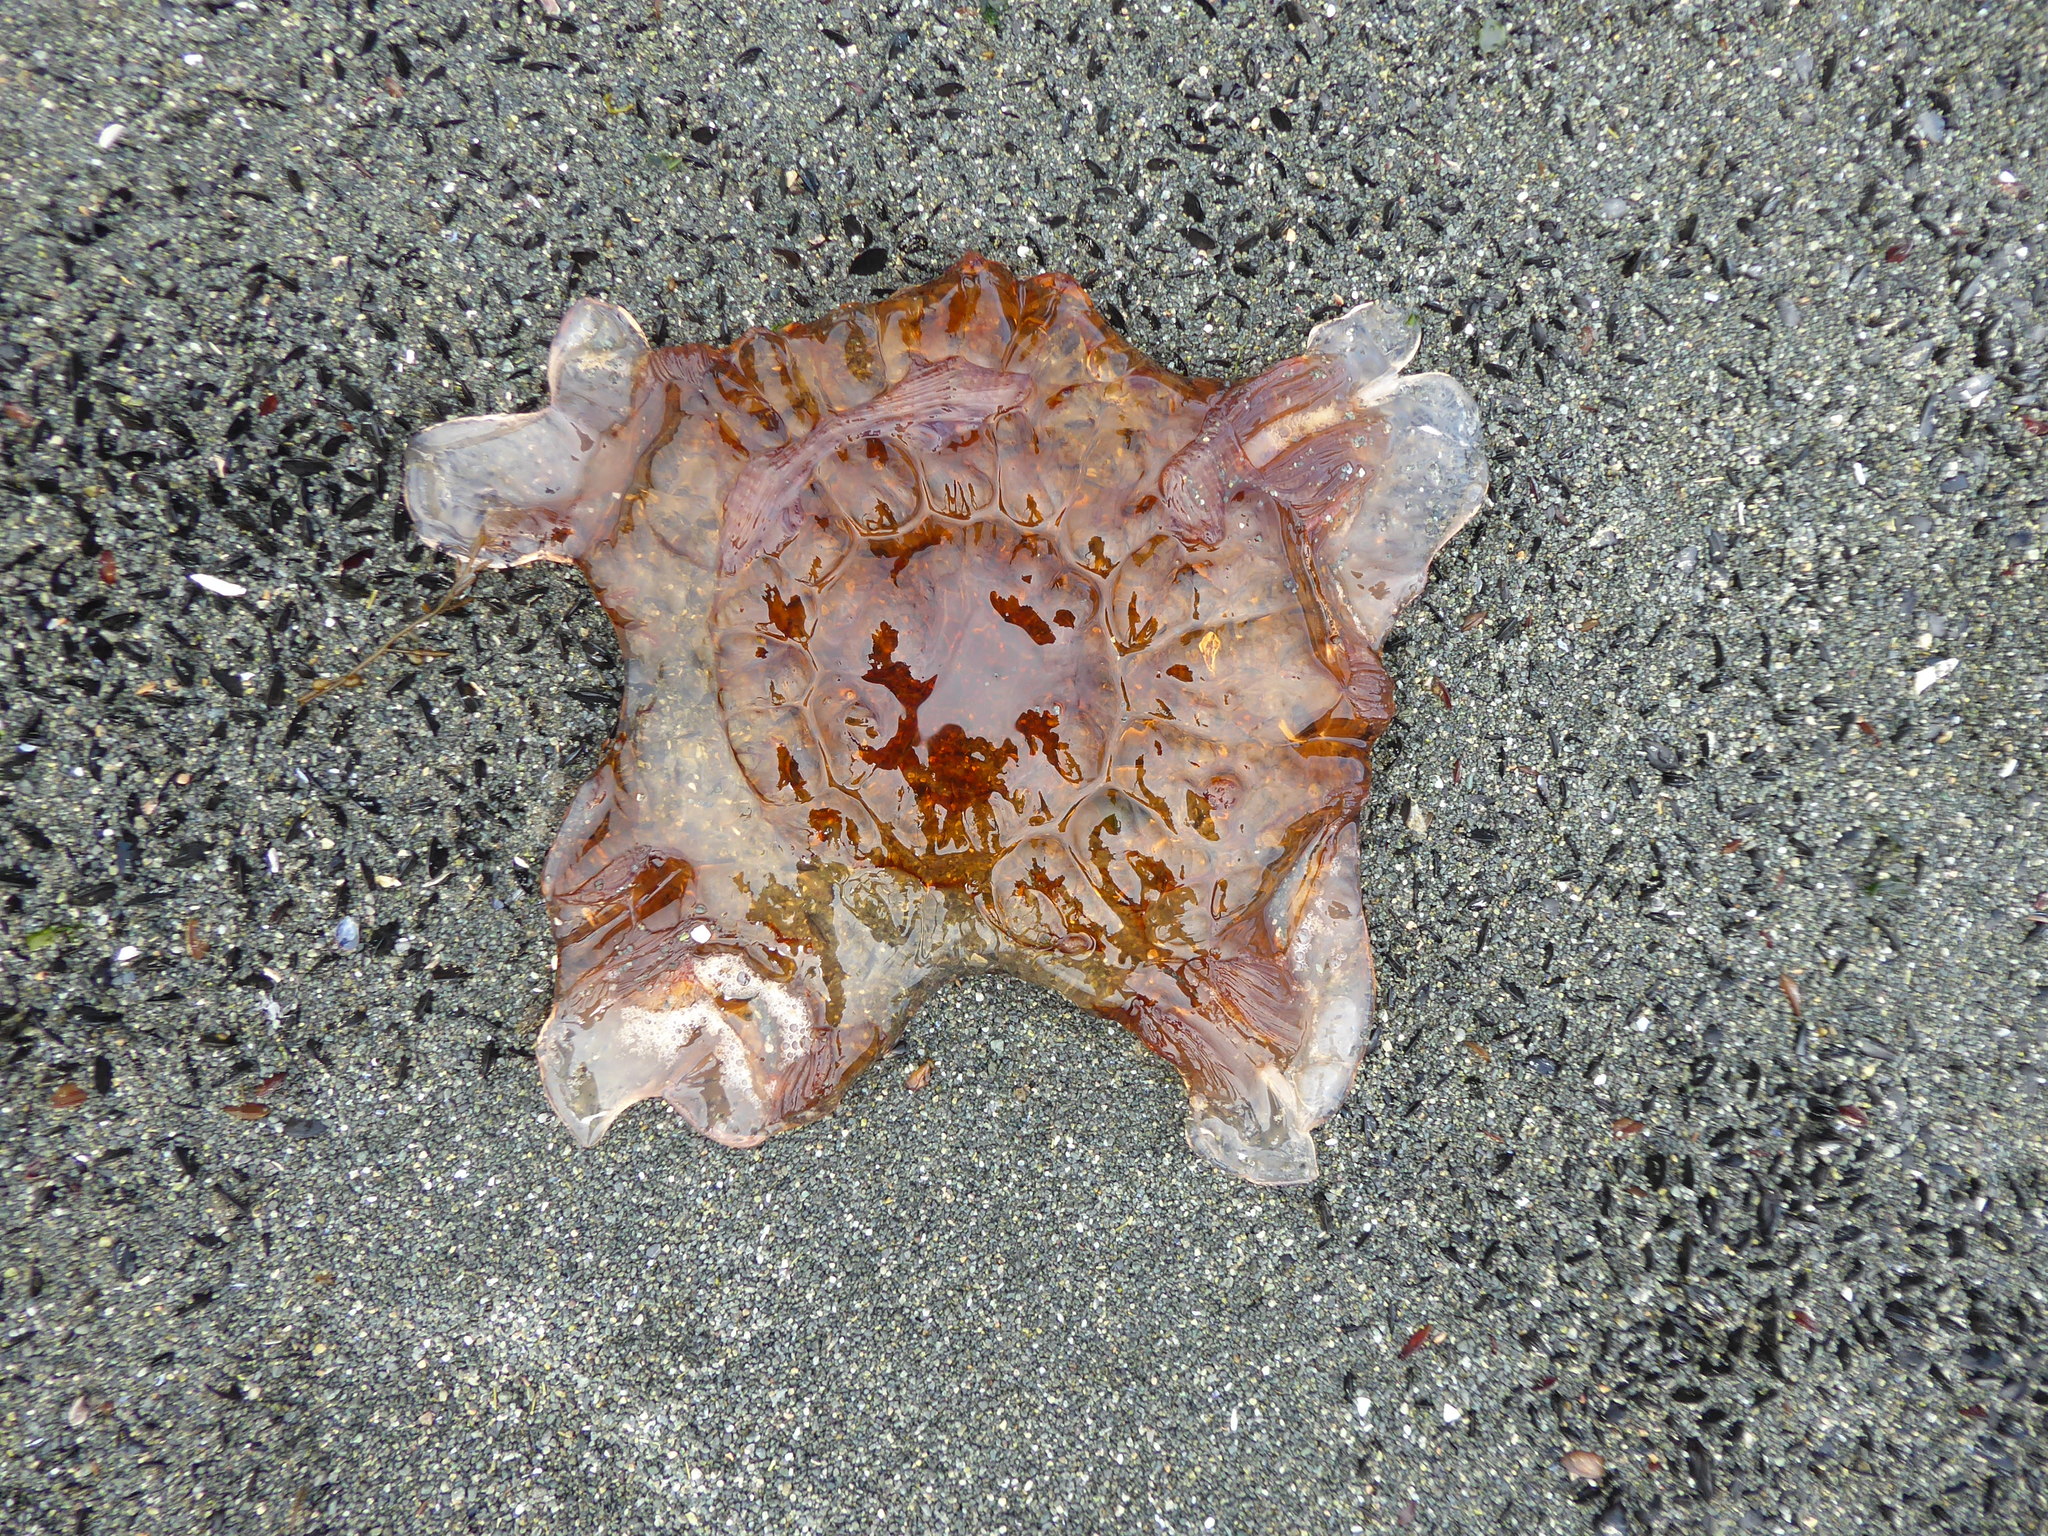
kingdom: Animalia
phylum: Cnidaria
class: Scyphozoa
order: Semaeostomeae
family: Cyaneidae
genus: Cyanea
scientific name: Cyanea ferruginea
